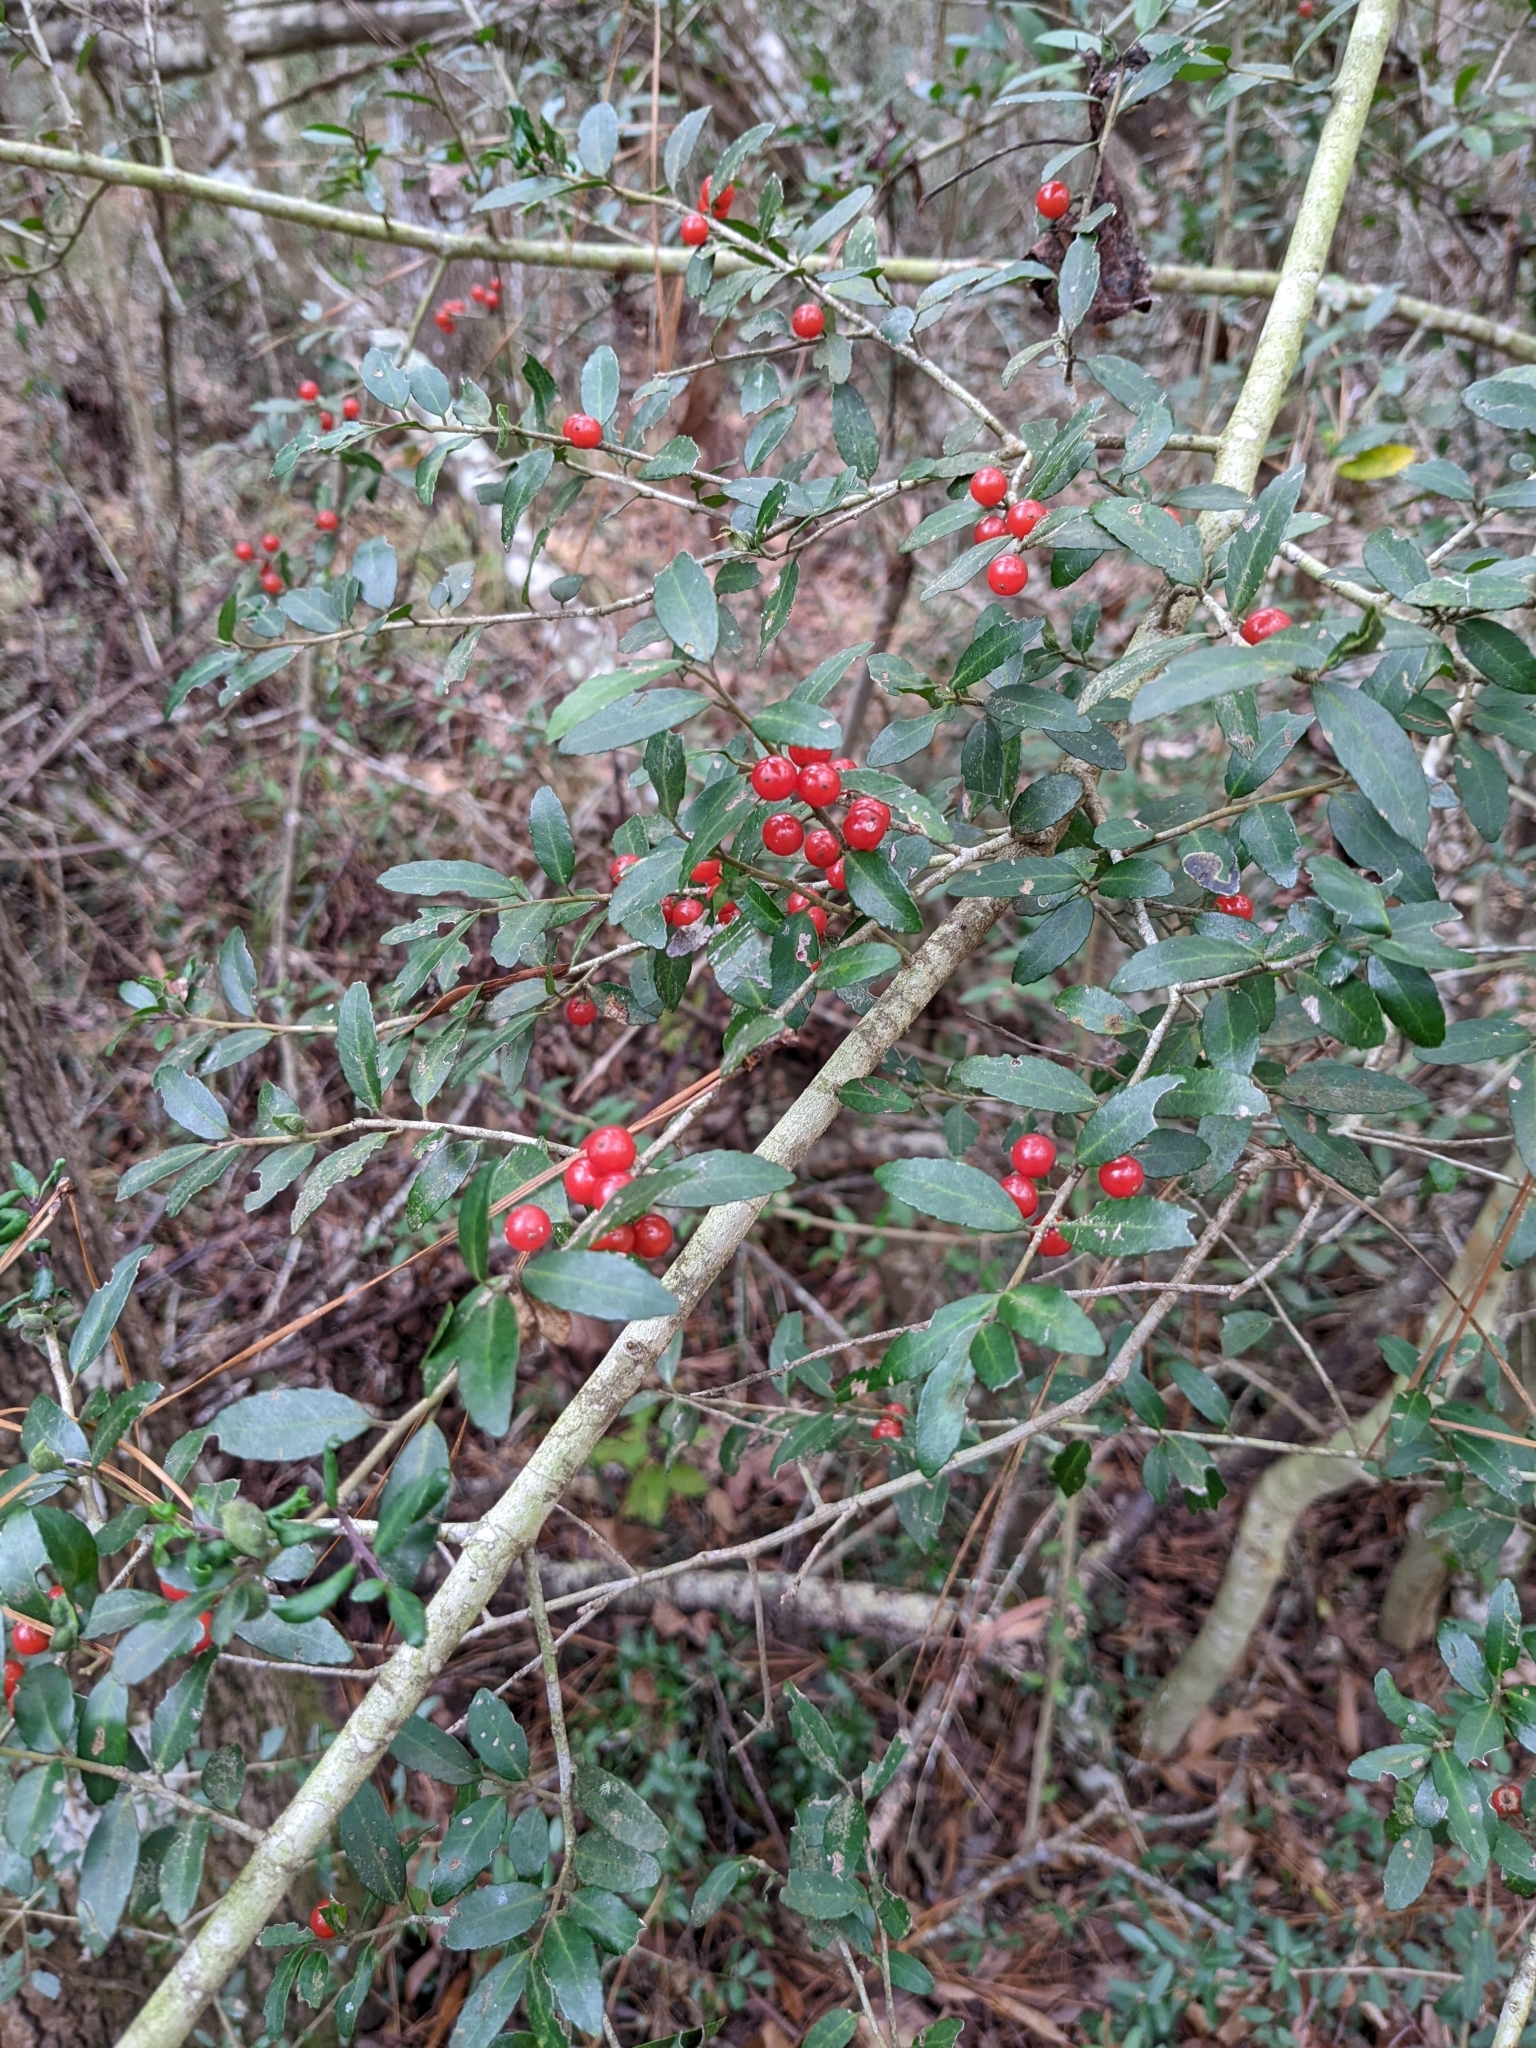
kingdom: Plantae
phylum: Tracheophyta
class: Magnoliopsida
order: Aquifoliales
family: Aquifoliaceae
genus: Ilex
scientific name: Ilex vomitoria
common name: Yaupon holly
